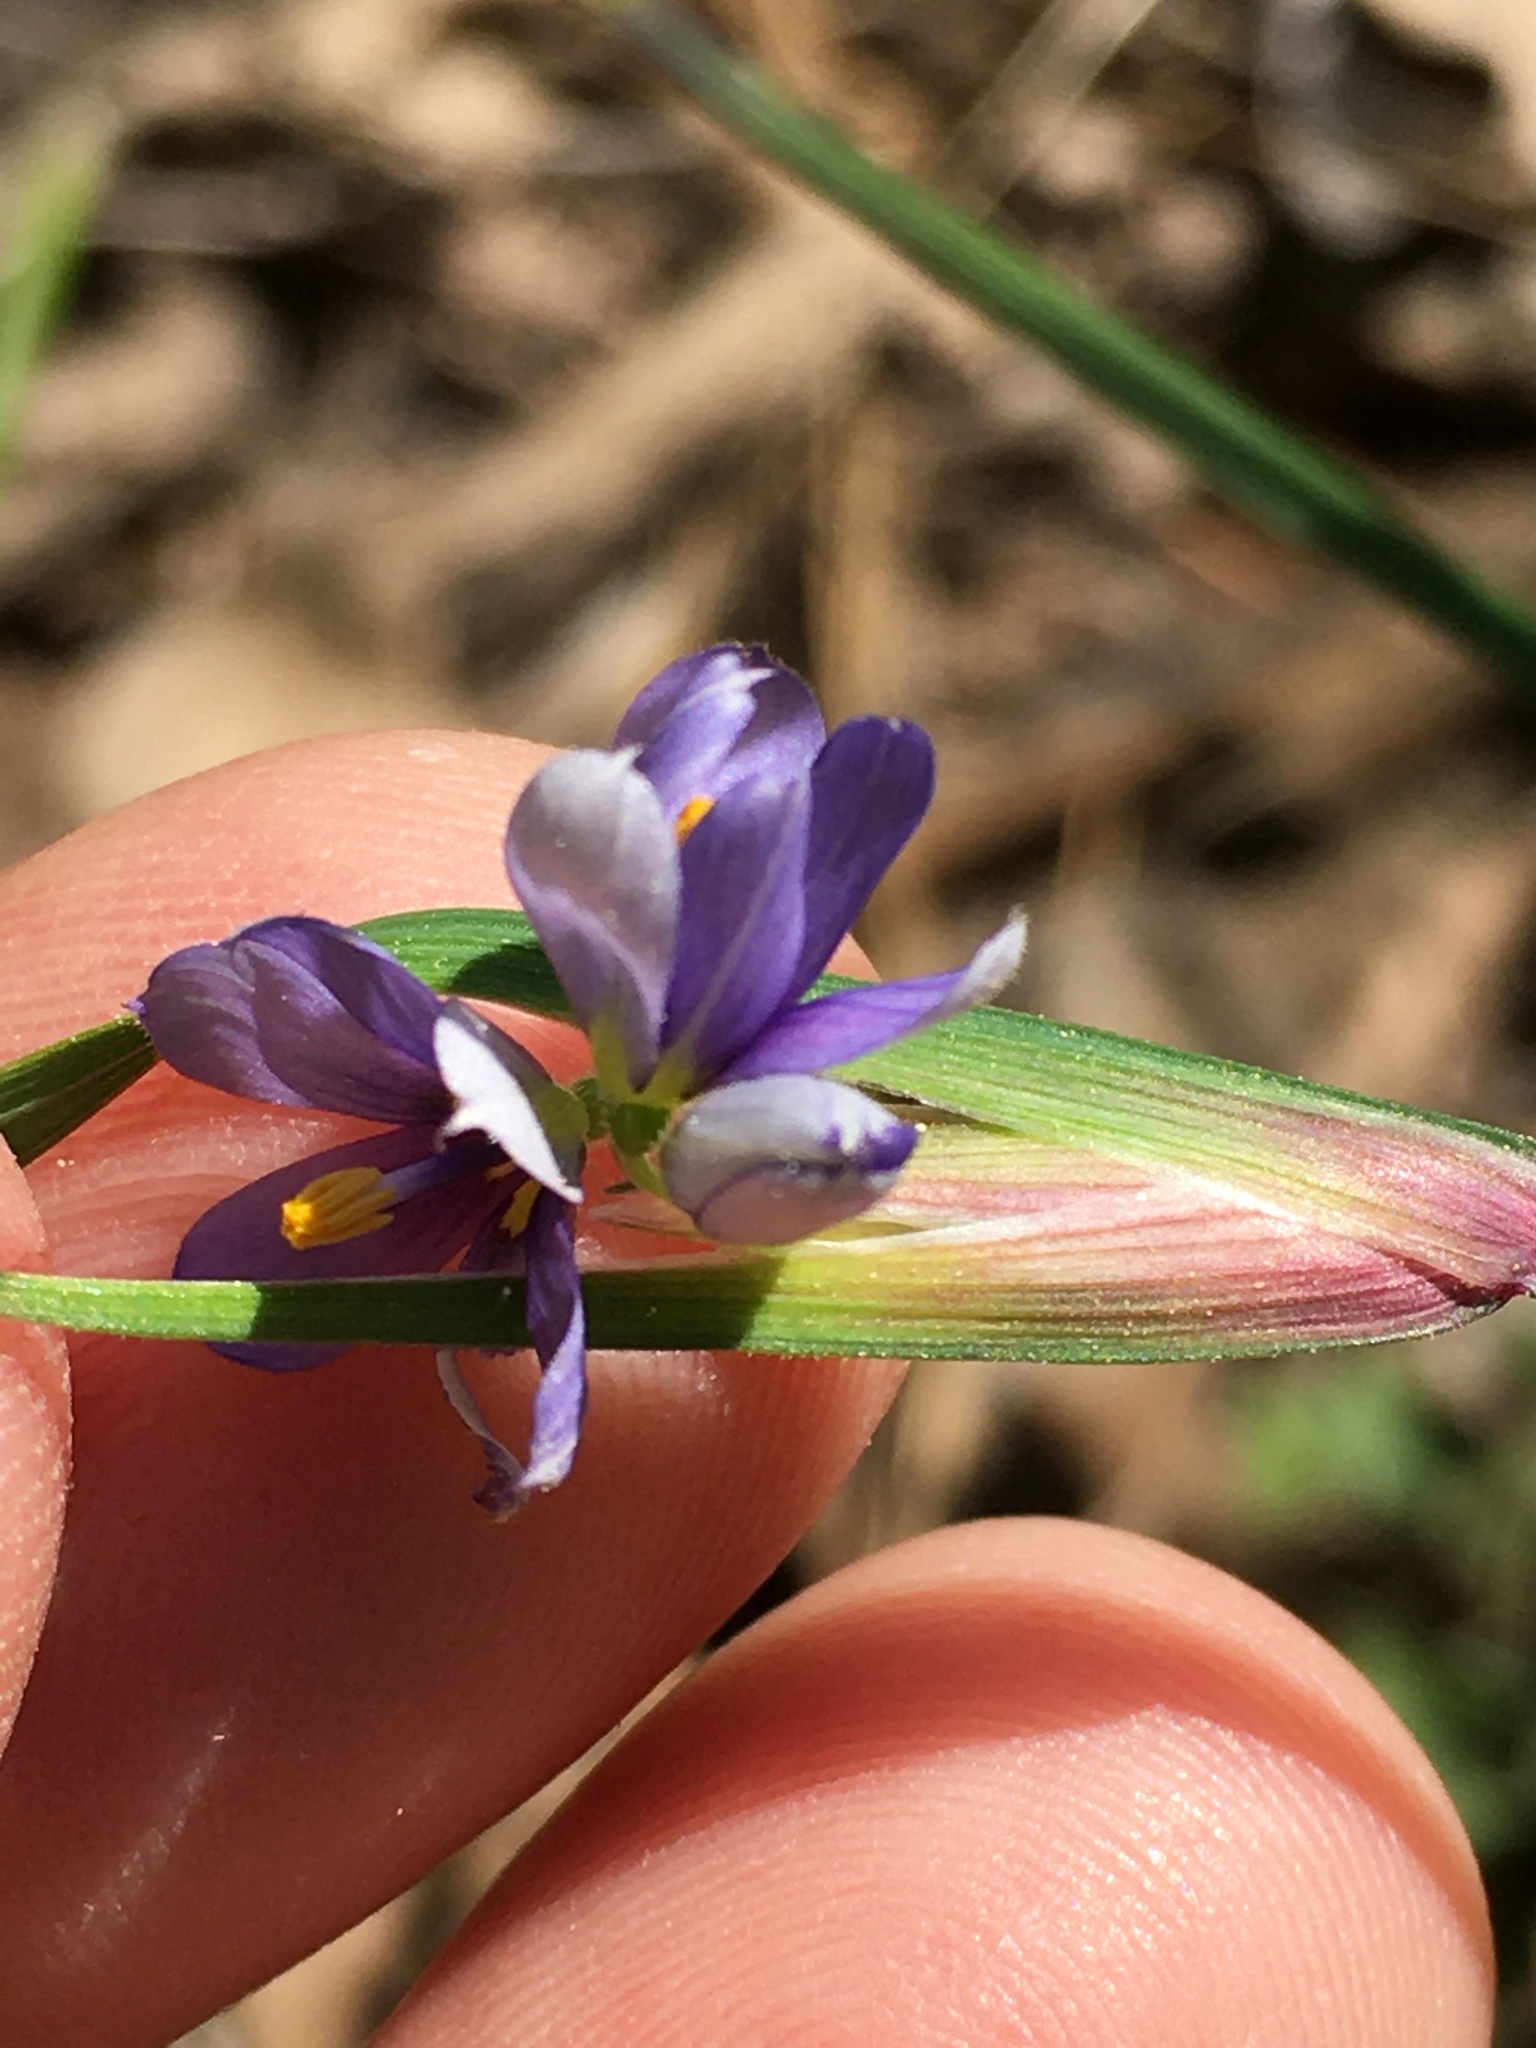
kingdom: Plantae
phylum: Tracheophyta
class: Liliopsida
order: Asparagales
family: Iridaceae
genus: Sisyrinchium
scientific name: Sisyrinchium mucronatum
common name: Eastern blue-eyed-grass
